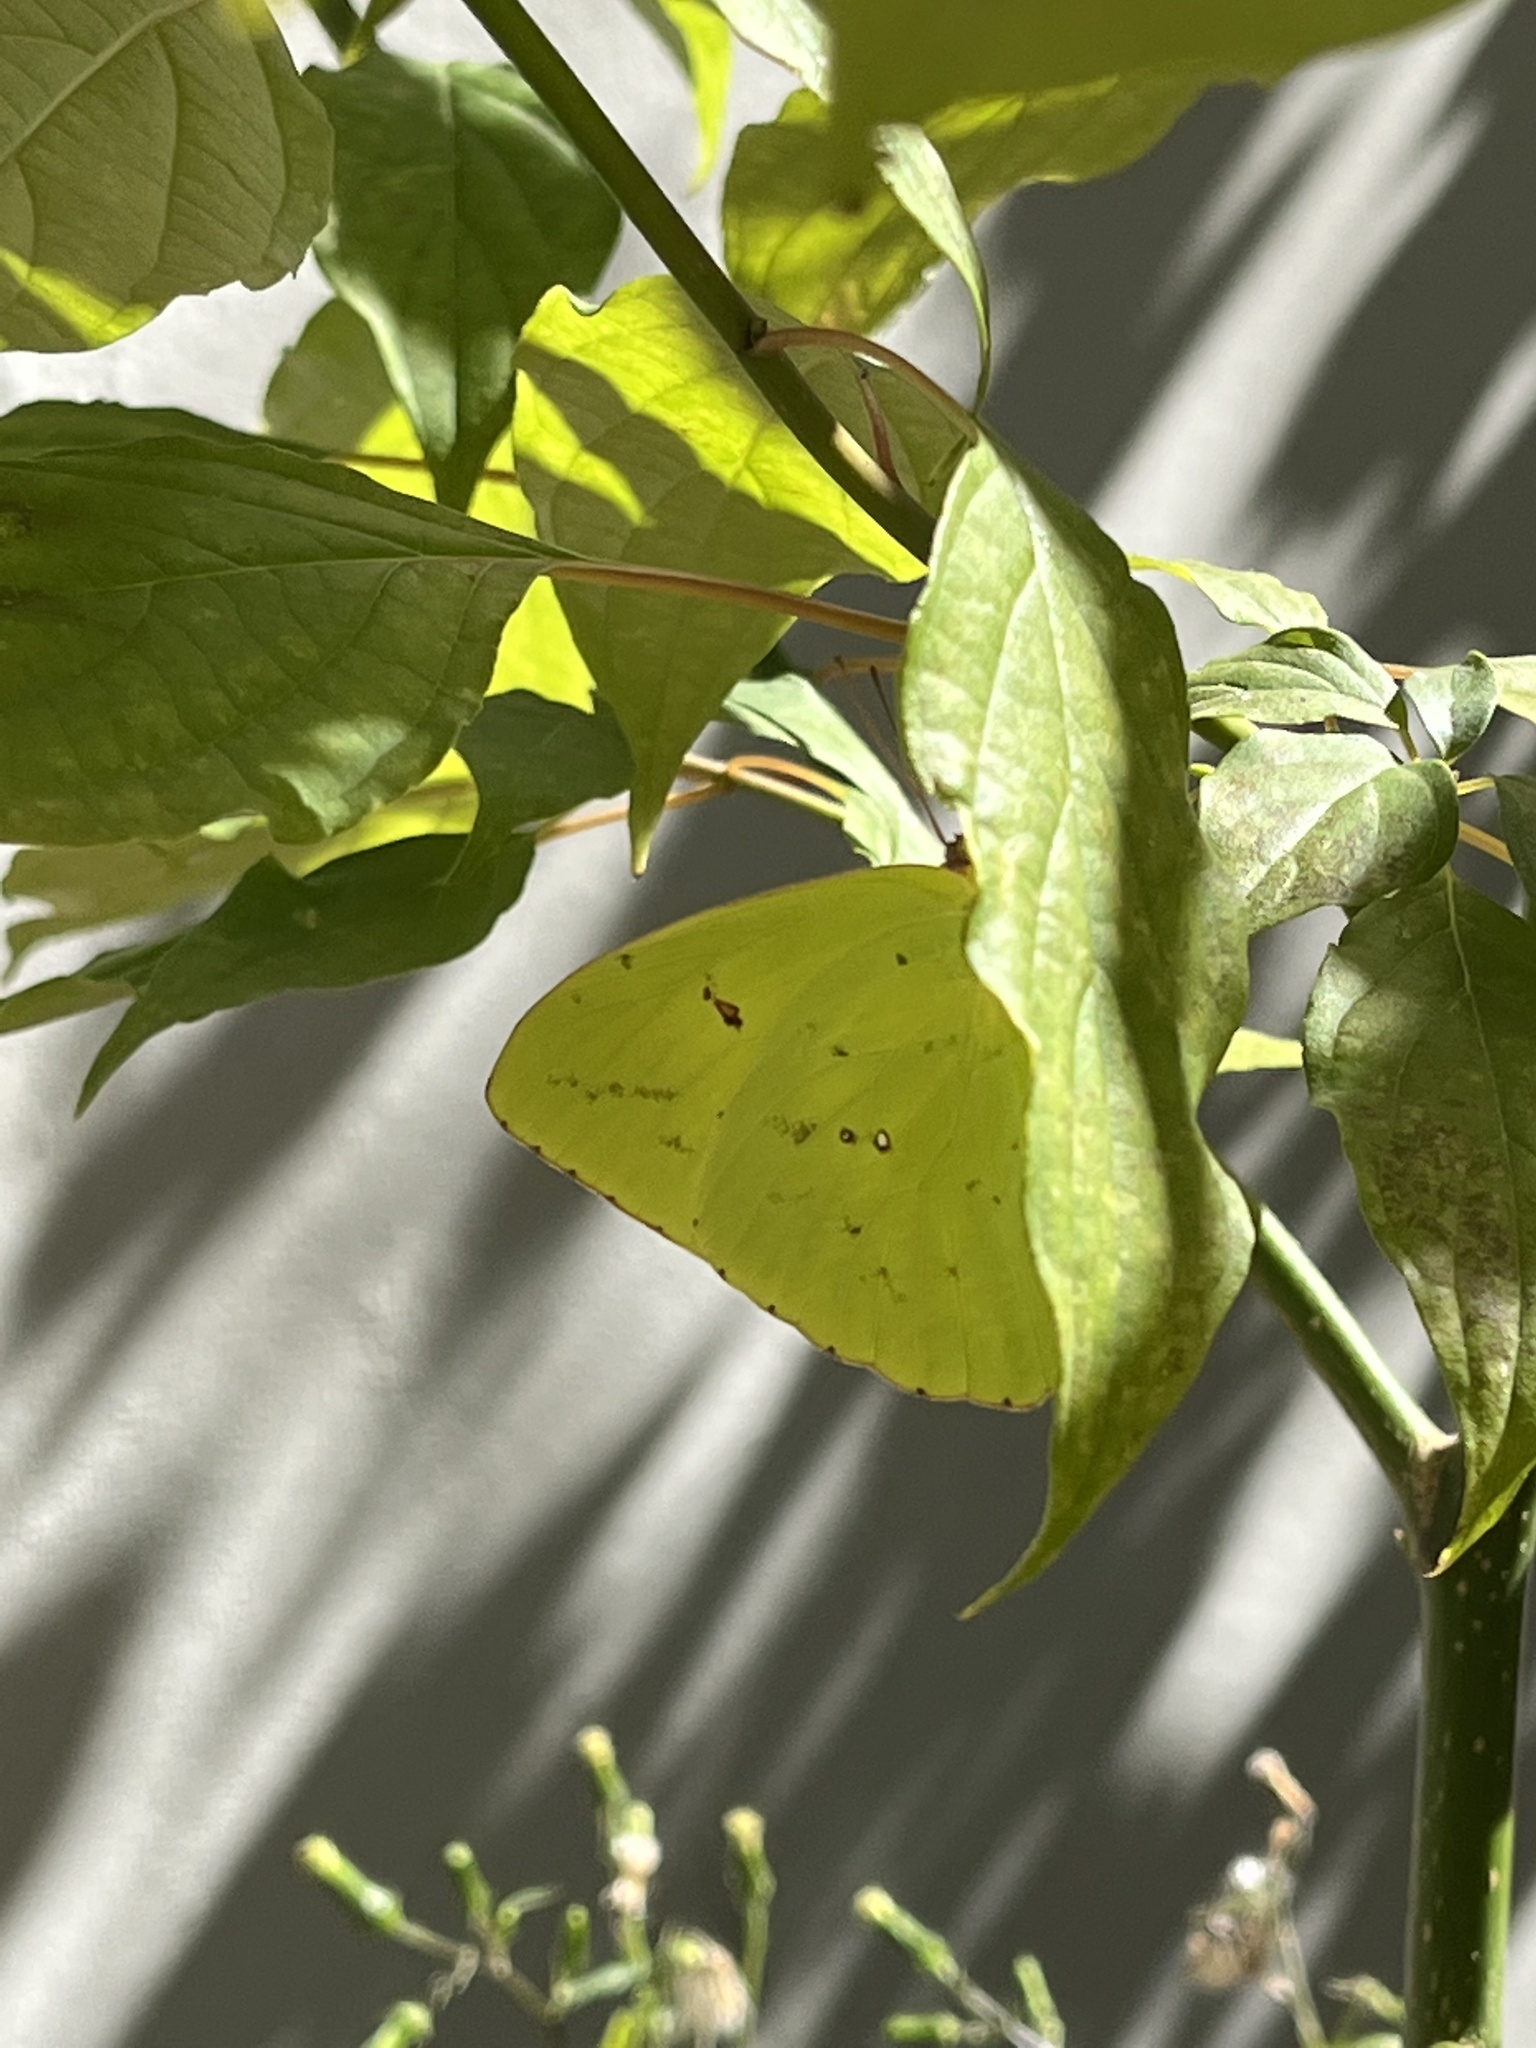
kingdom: Animalia
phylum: Arthropoda
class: Insecta
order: Lepidoptera
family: Pieridae
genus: Phoebis
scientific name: Phoebis sennae
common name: Cloudless sulphur
